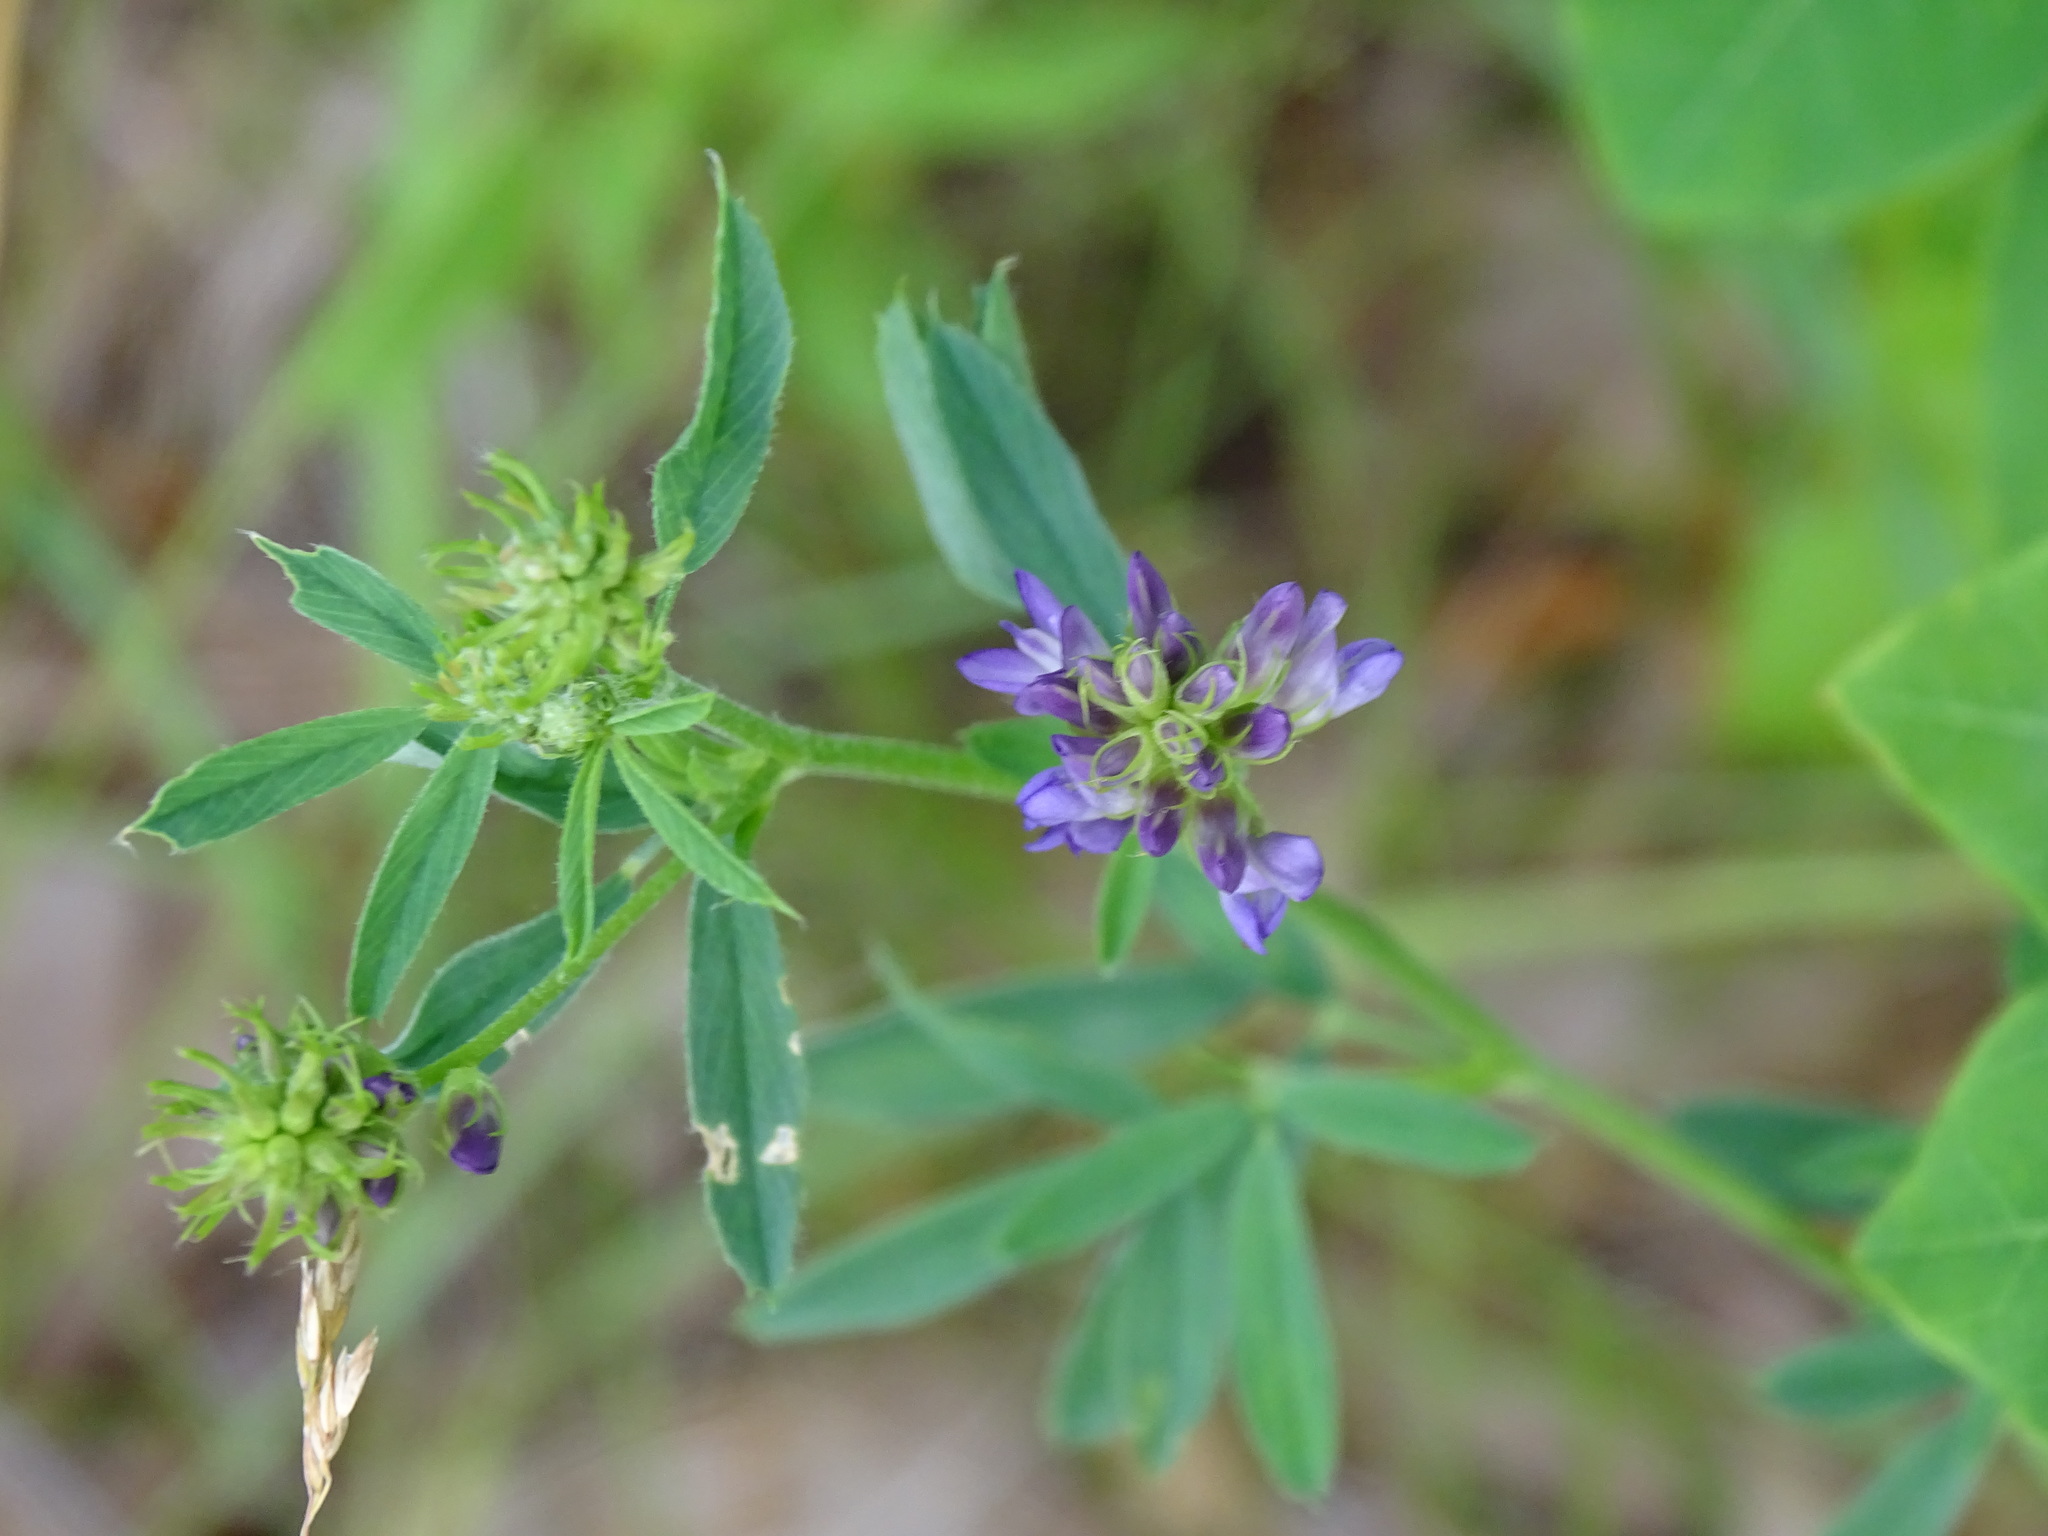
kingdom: Plantae
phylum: Tracheophyta
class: Magnoliopsida
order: Fabales
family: Fabaceae
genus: Medicago
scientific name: Medicago sativa
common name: Alfalfa
